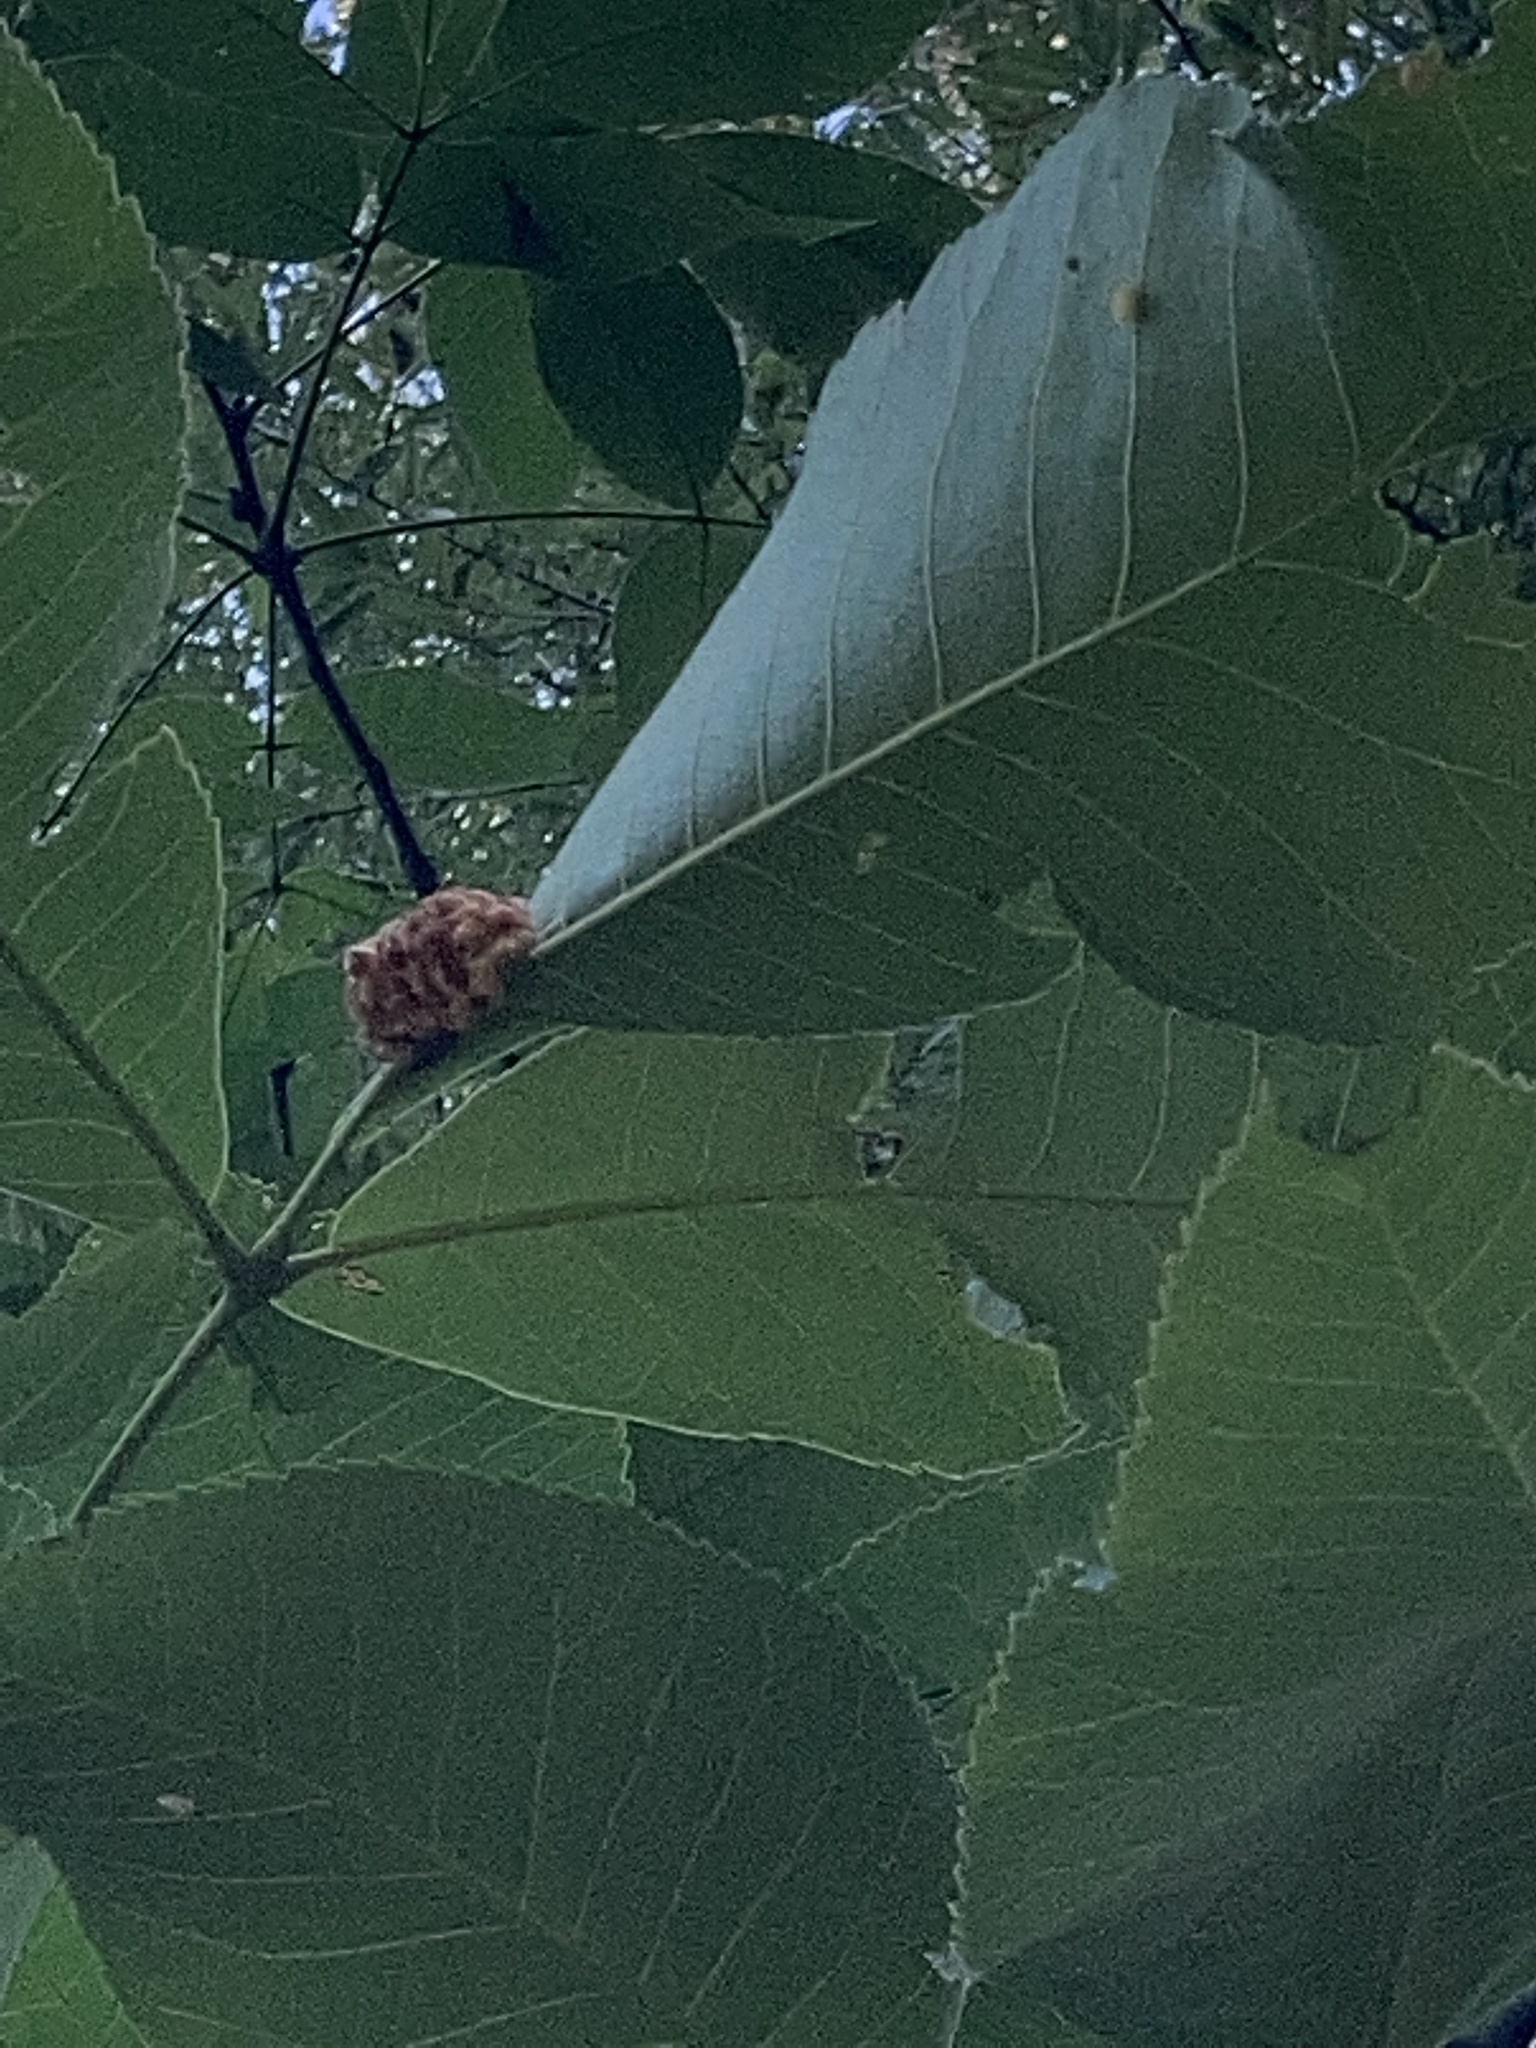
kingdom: Animalia
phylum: Arthropoda
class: Insecta
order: Diptera
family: Cecidomyiidae
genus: Caryomyia
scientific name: Caryomyia aggregata
